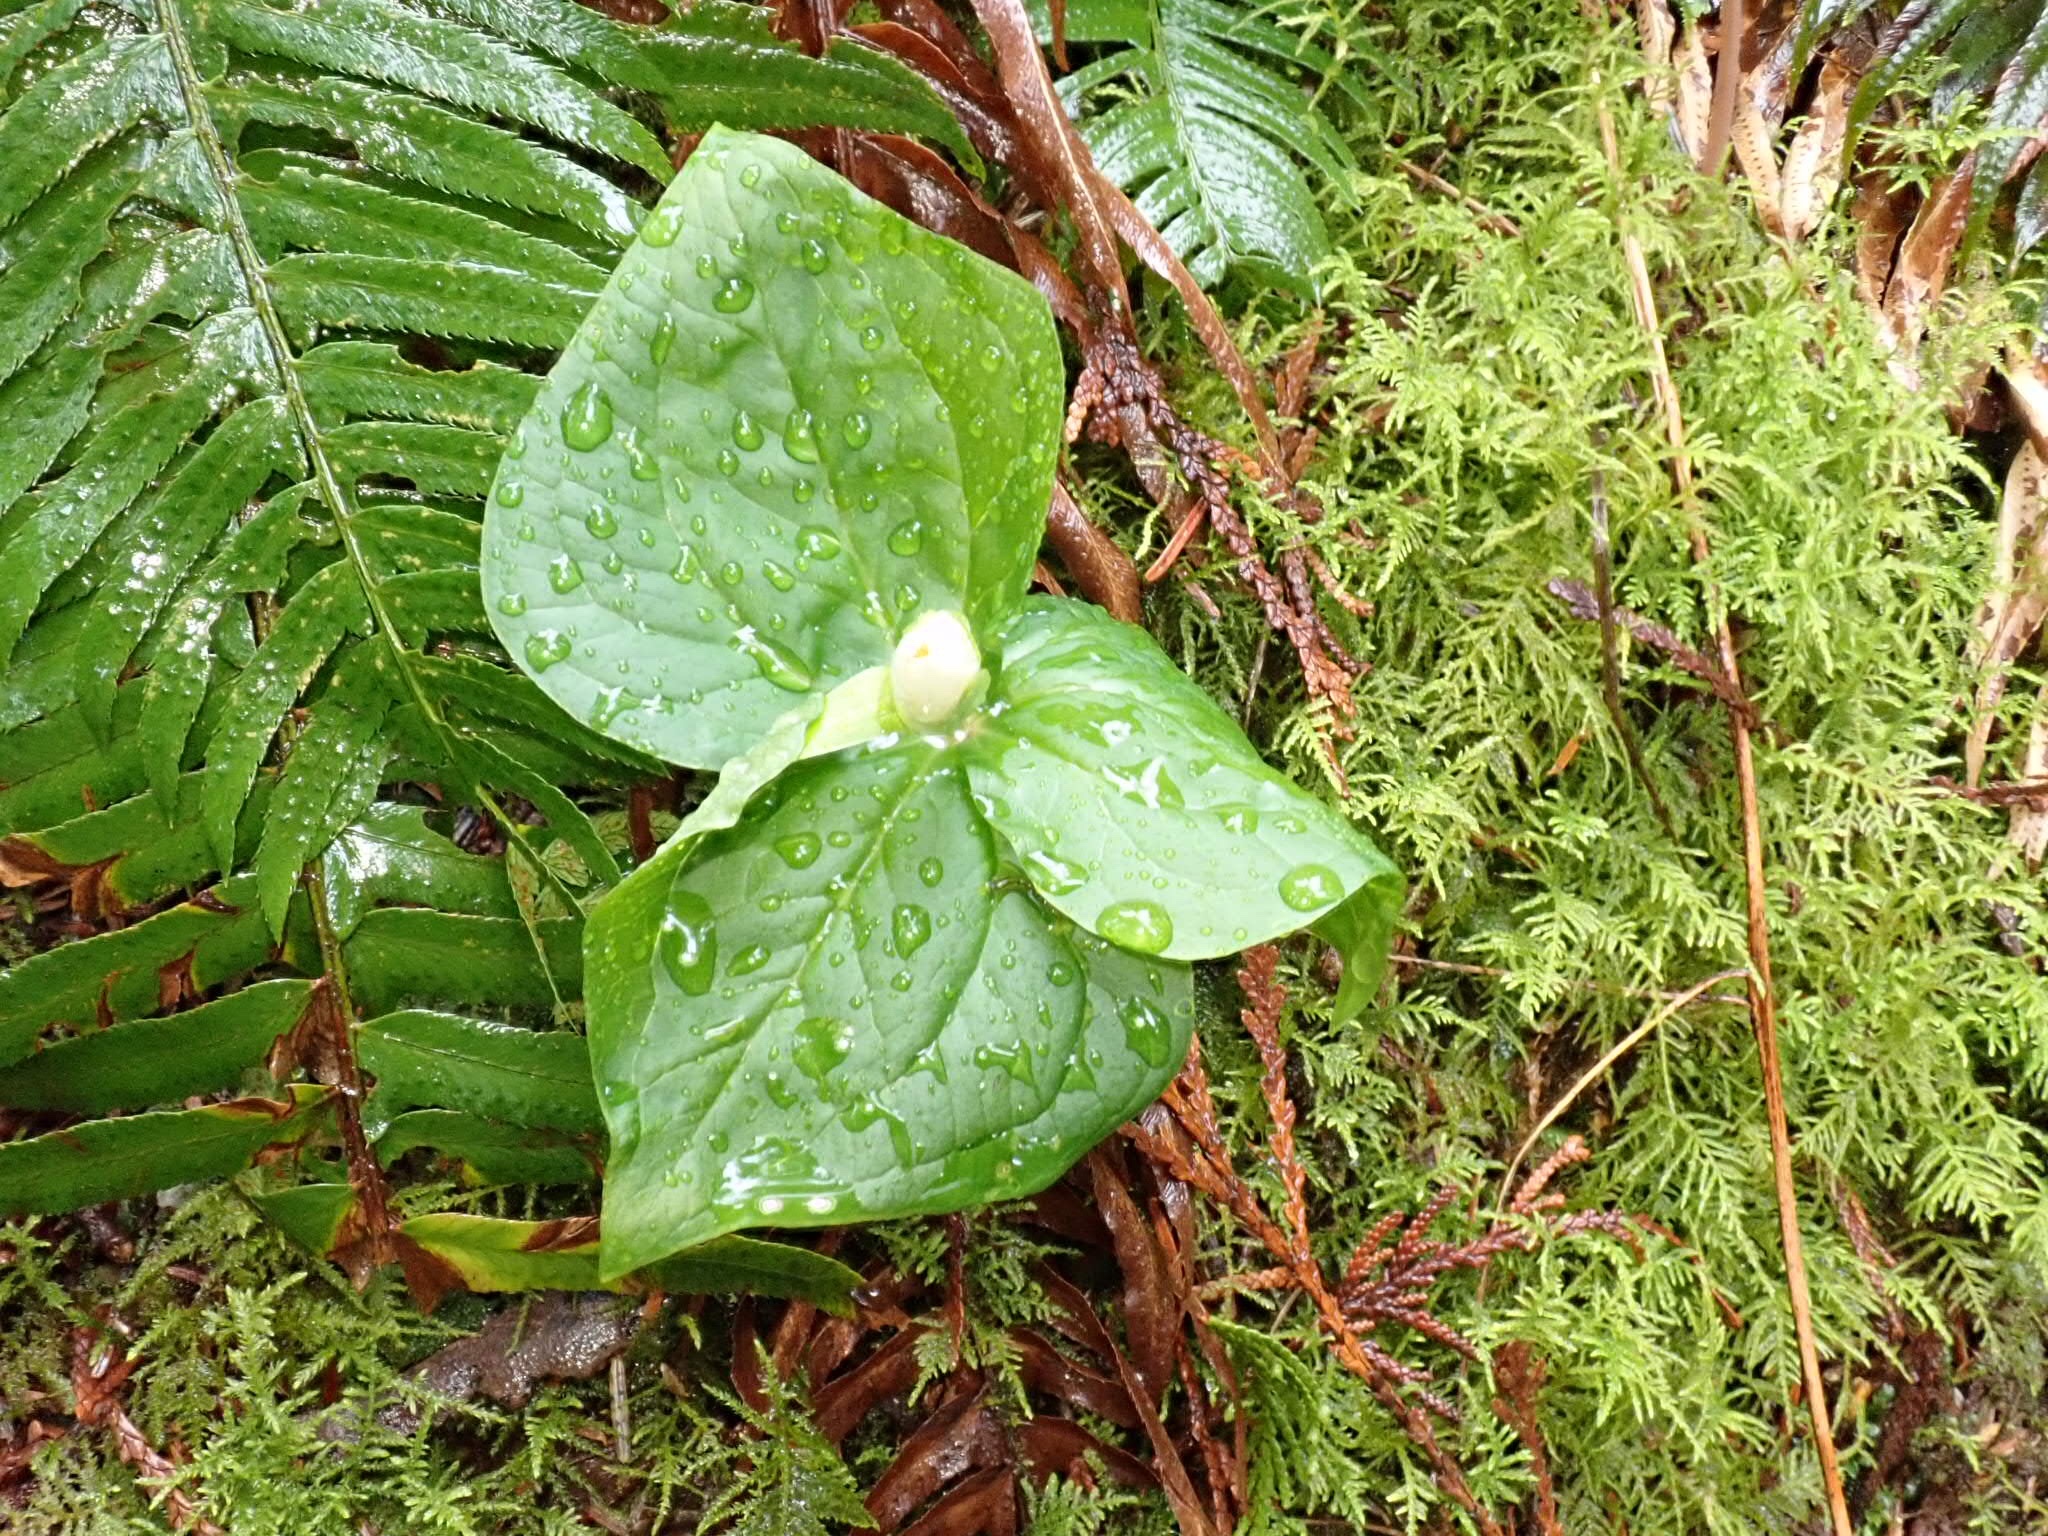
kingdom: Plantae
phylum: Tracheophyta
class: Liliopsida
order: Liliales
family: Melanthiaceae
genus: Trillium
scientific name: Trillium ovatum
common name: Pacific trillium
